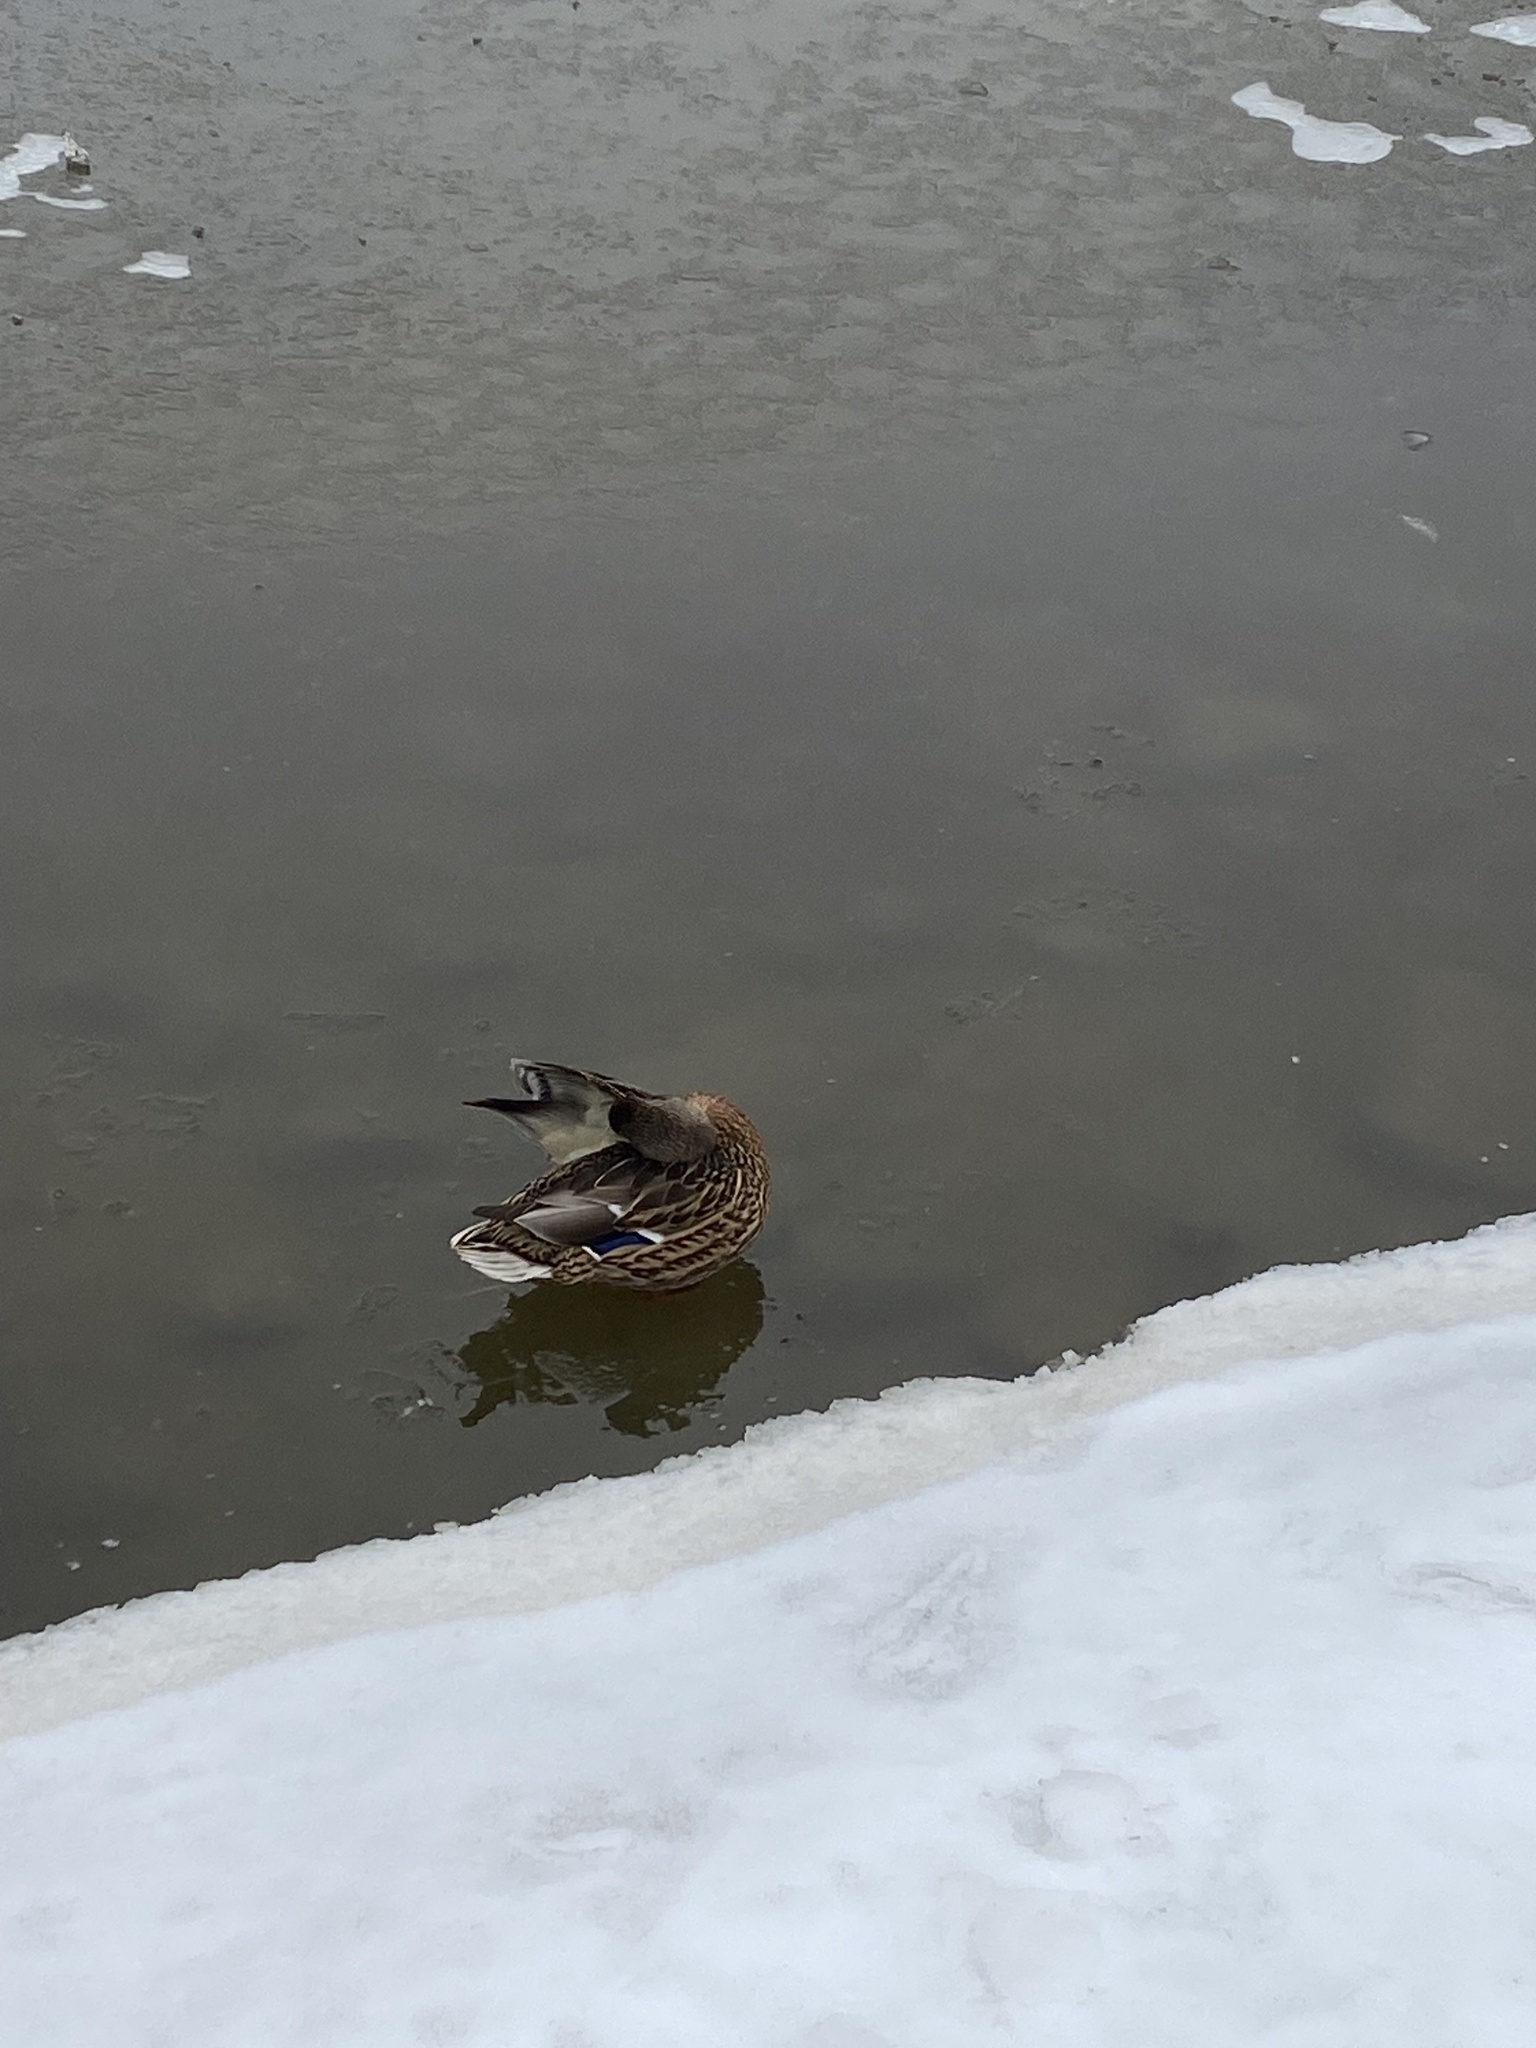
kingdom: Animalia
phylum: Chordata
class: Aves
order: Anseriformes
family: Anatidae
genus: Anas
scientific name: Anas platyrhynchos
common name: Mallard
